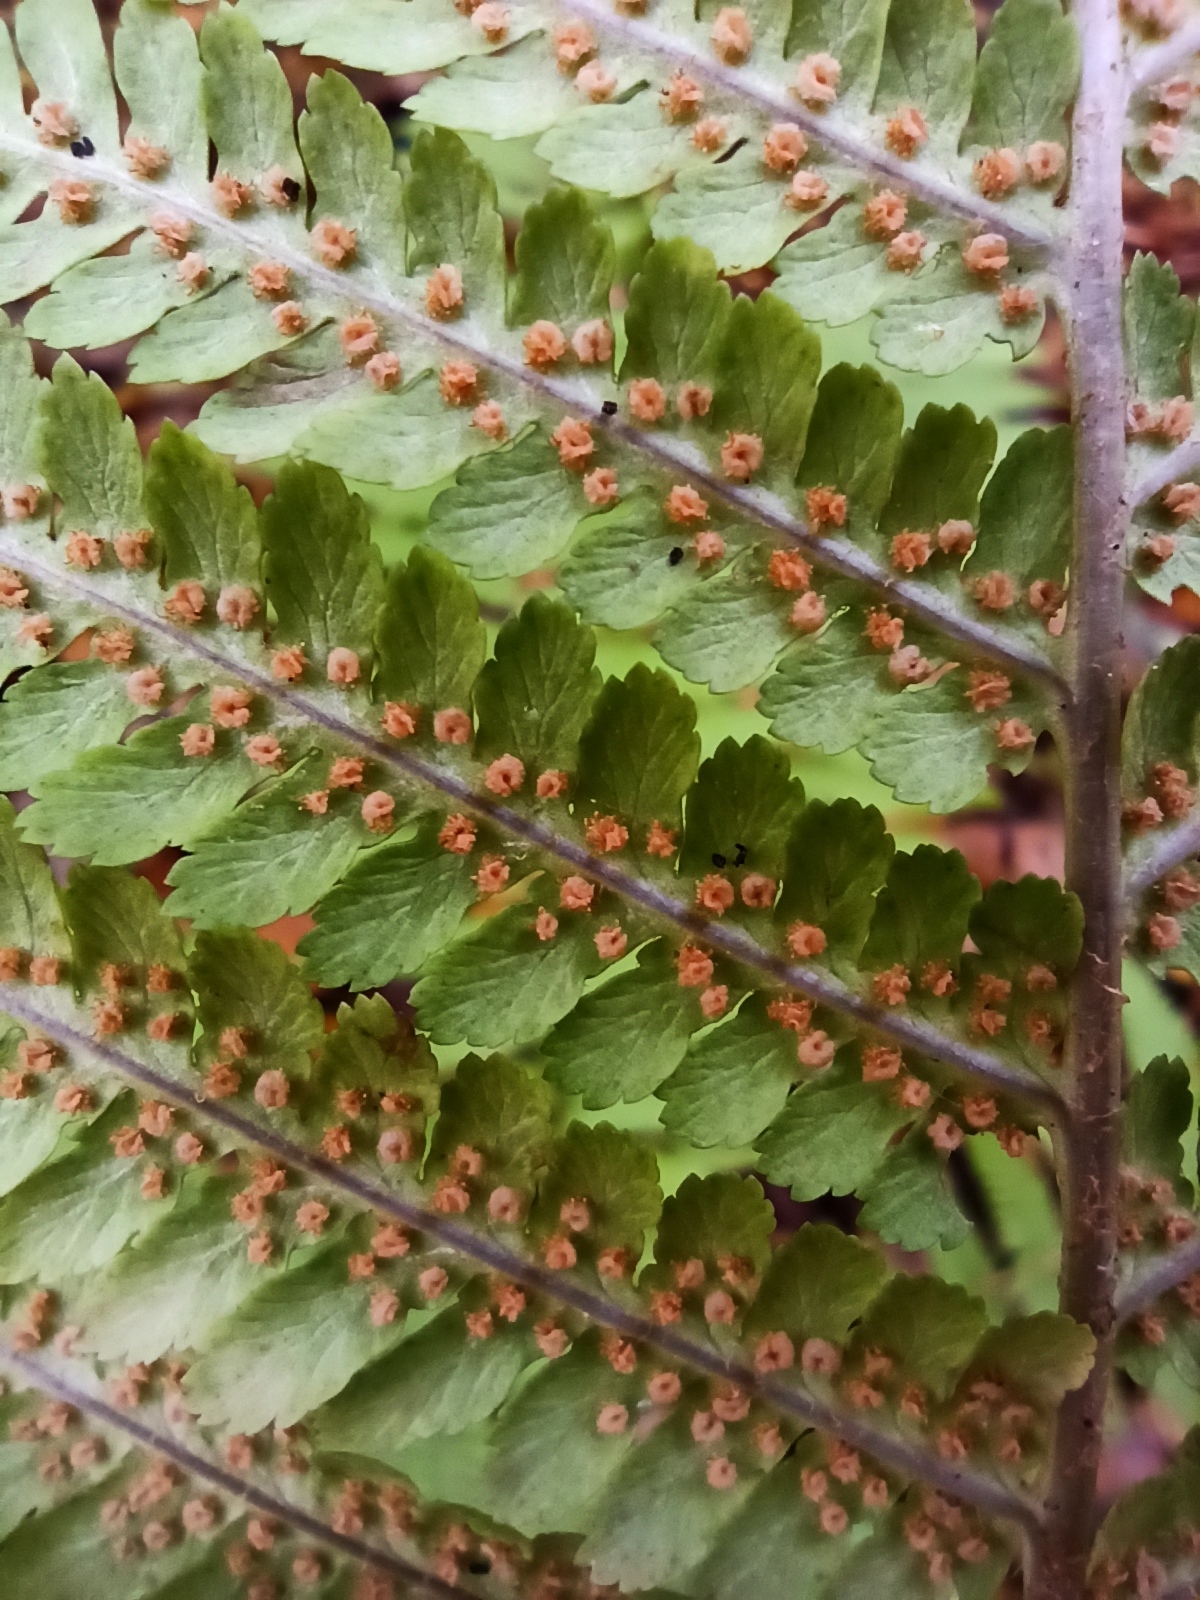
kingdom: Plantae
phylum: Tracheophyta
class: Polypodiopsida
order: Polypodiales
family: Dryopteridaceae
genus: Dryopteris
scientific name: Dryopteris filix-mas
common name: Male fern
